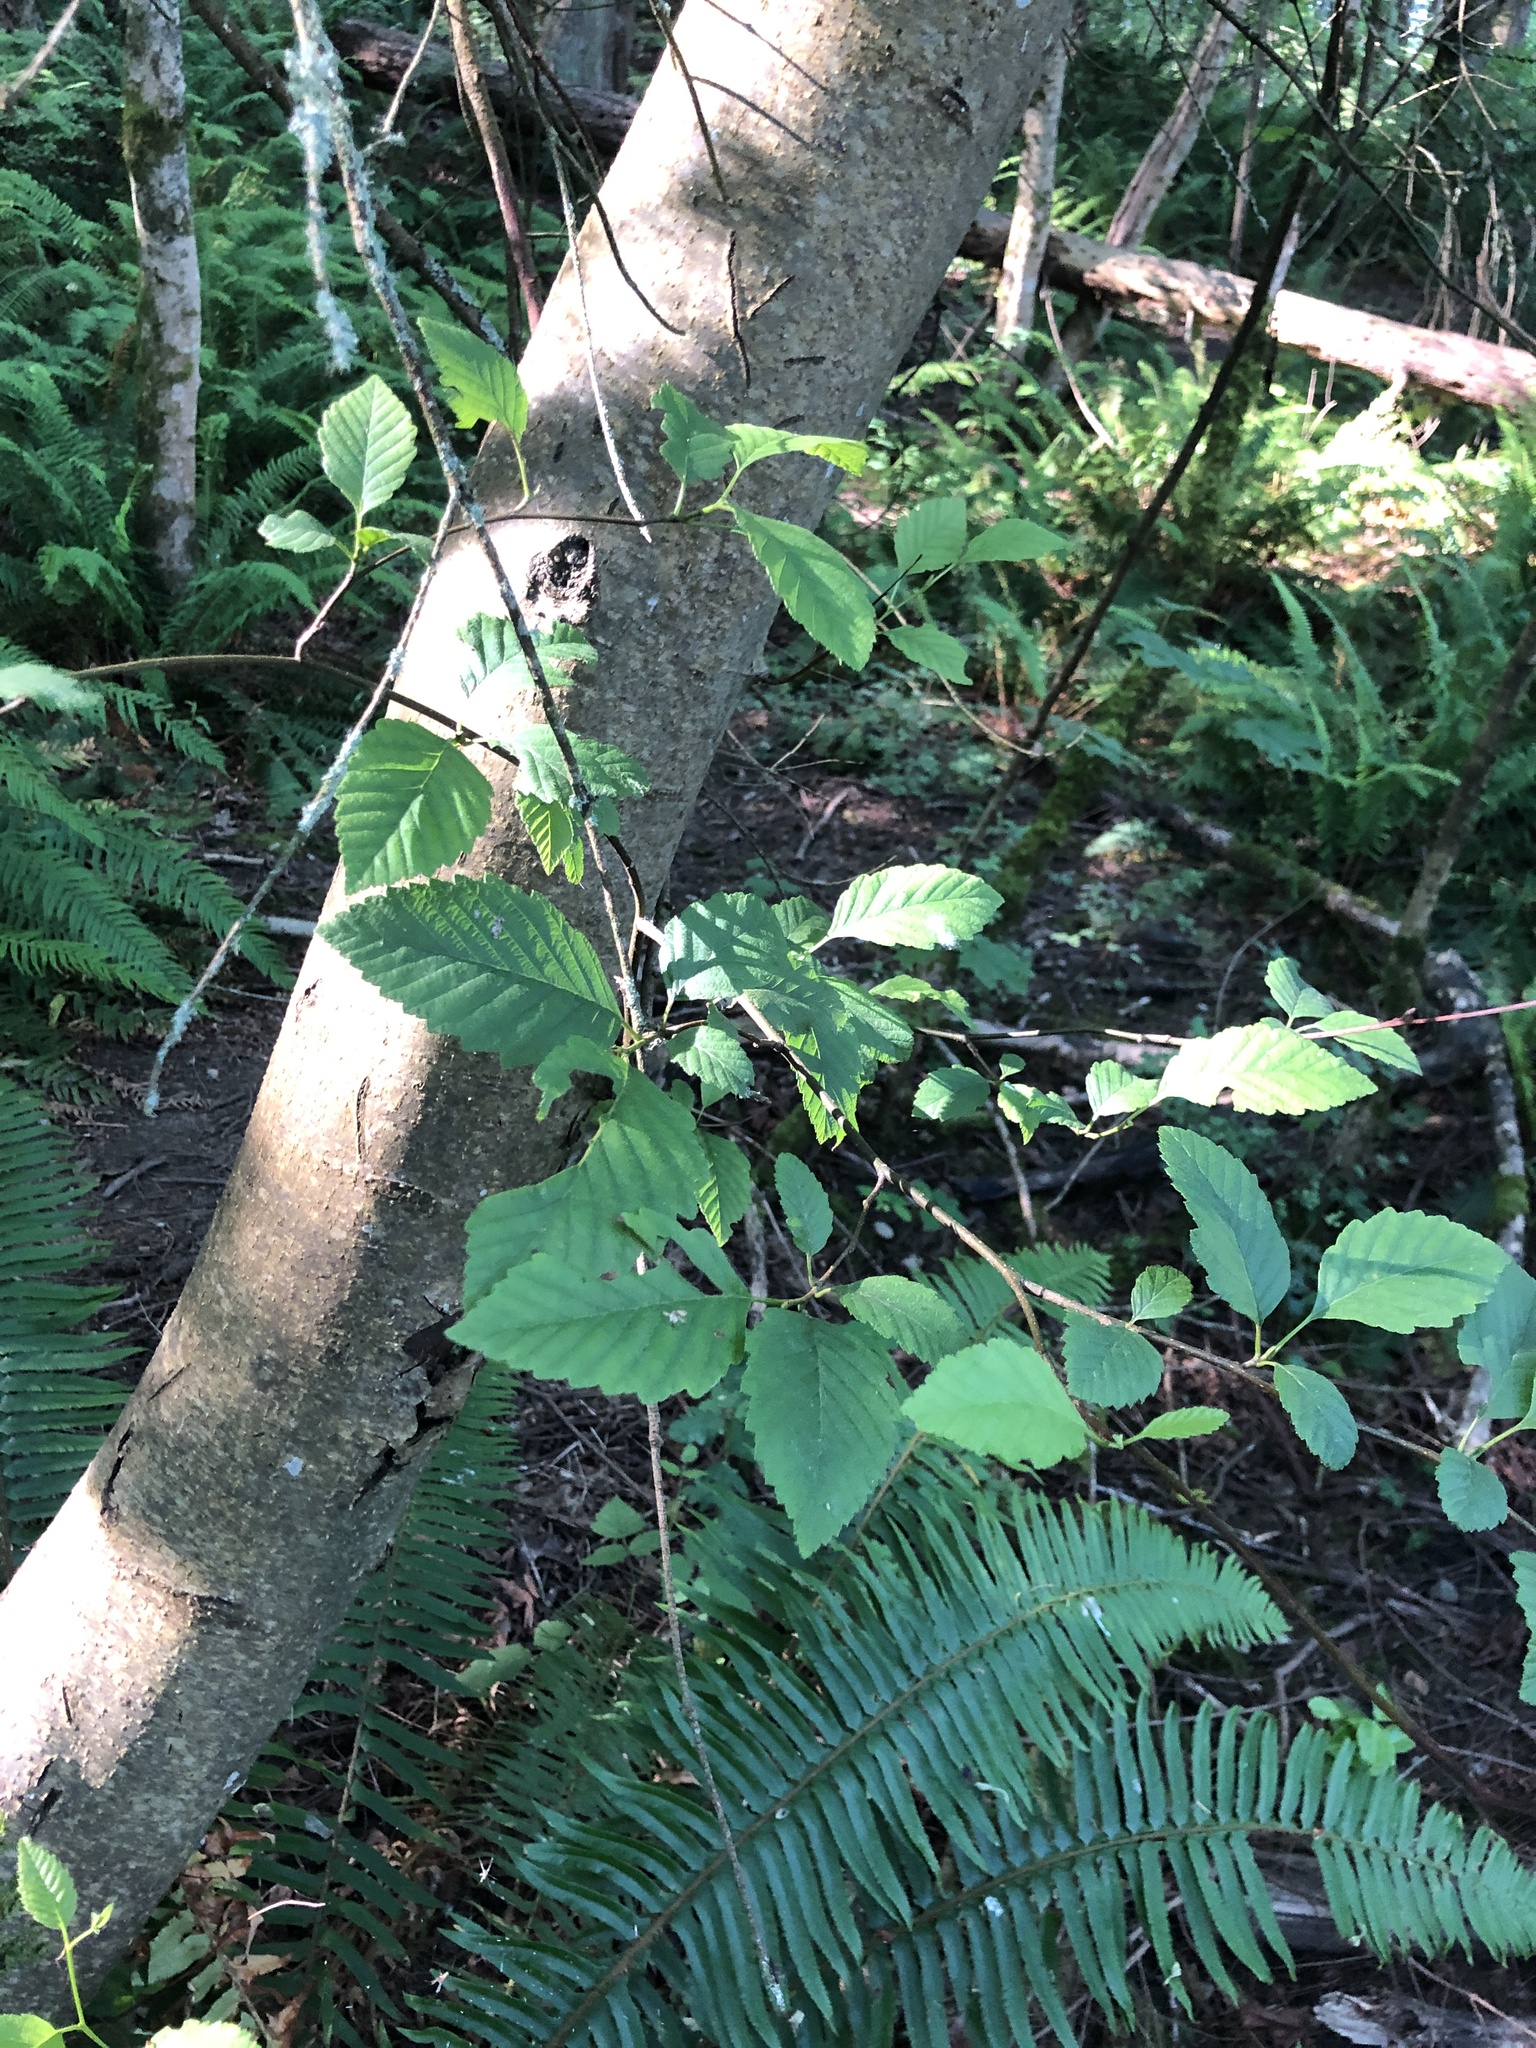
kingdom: Plantae
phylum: Tracheophyta
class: Magnoliopsida
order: Fagales
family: Betulaceae
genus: Alnus
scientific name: Alnus rubra
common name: Red alder
